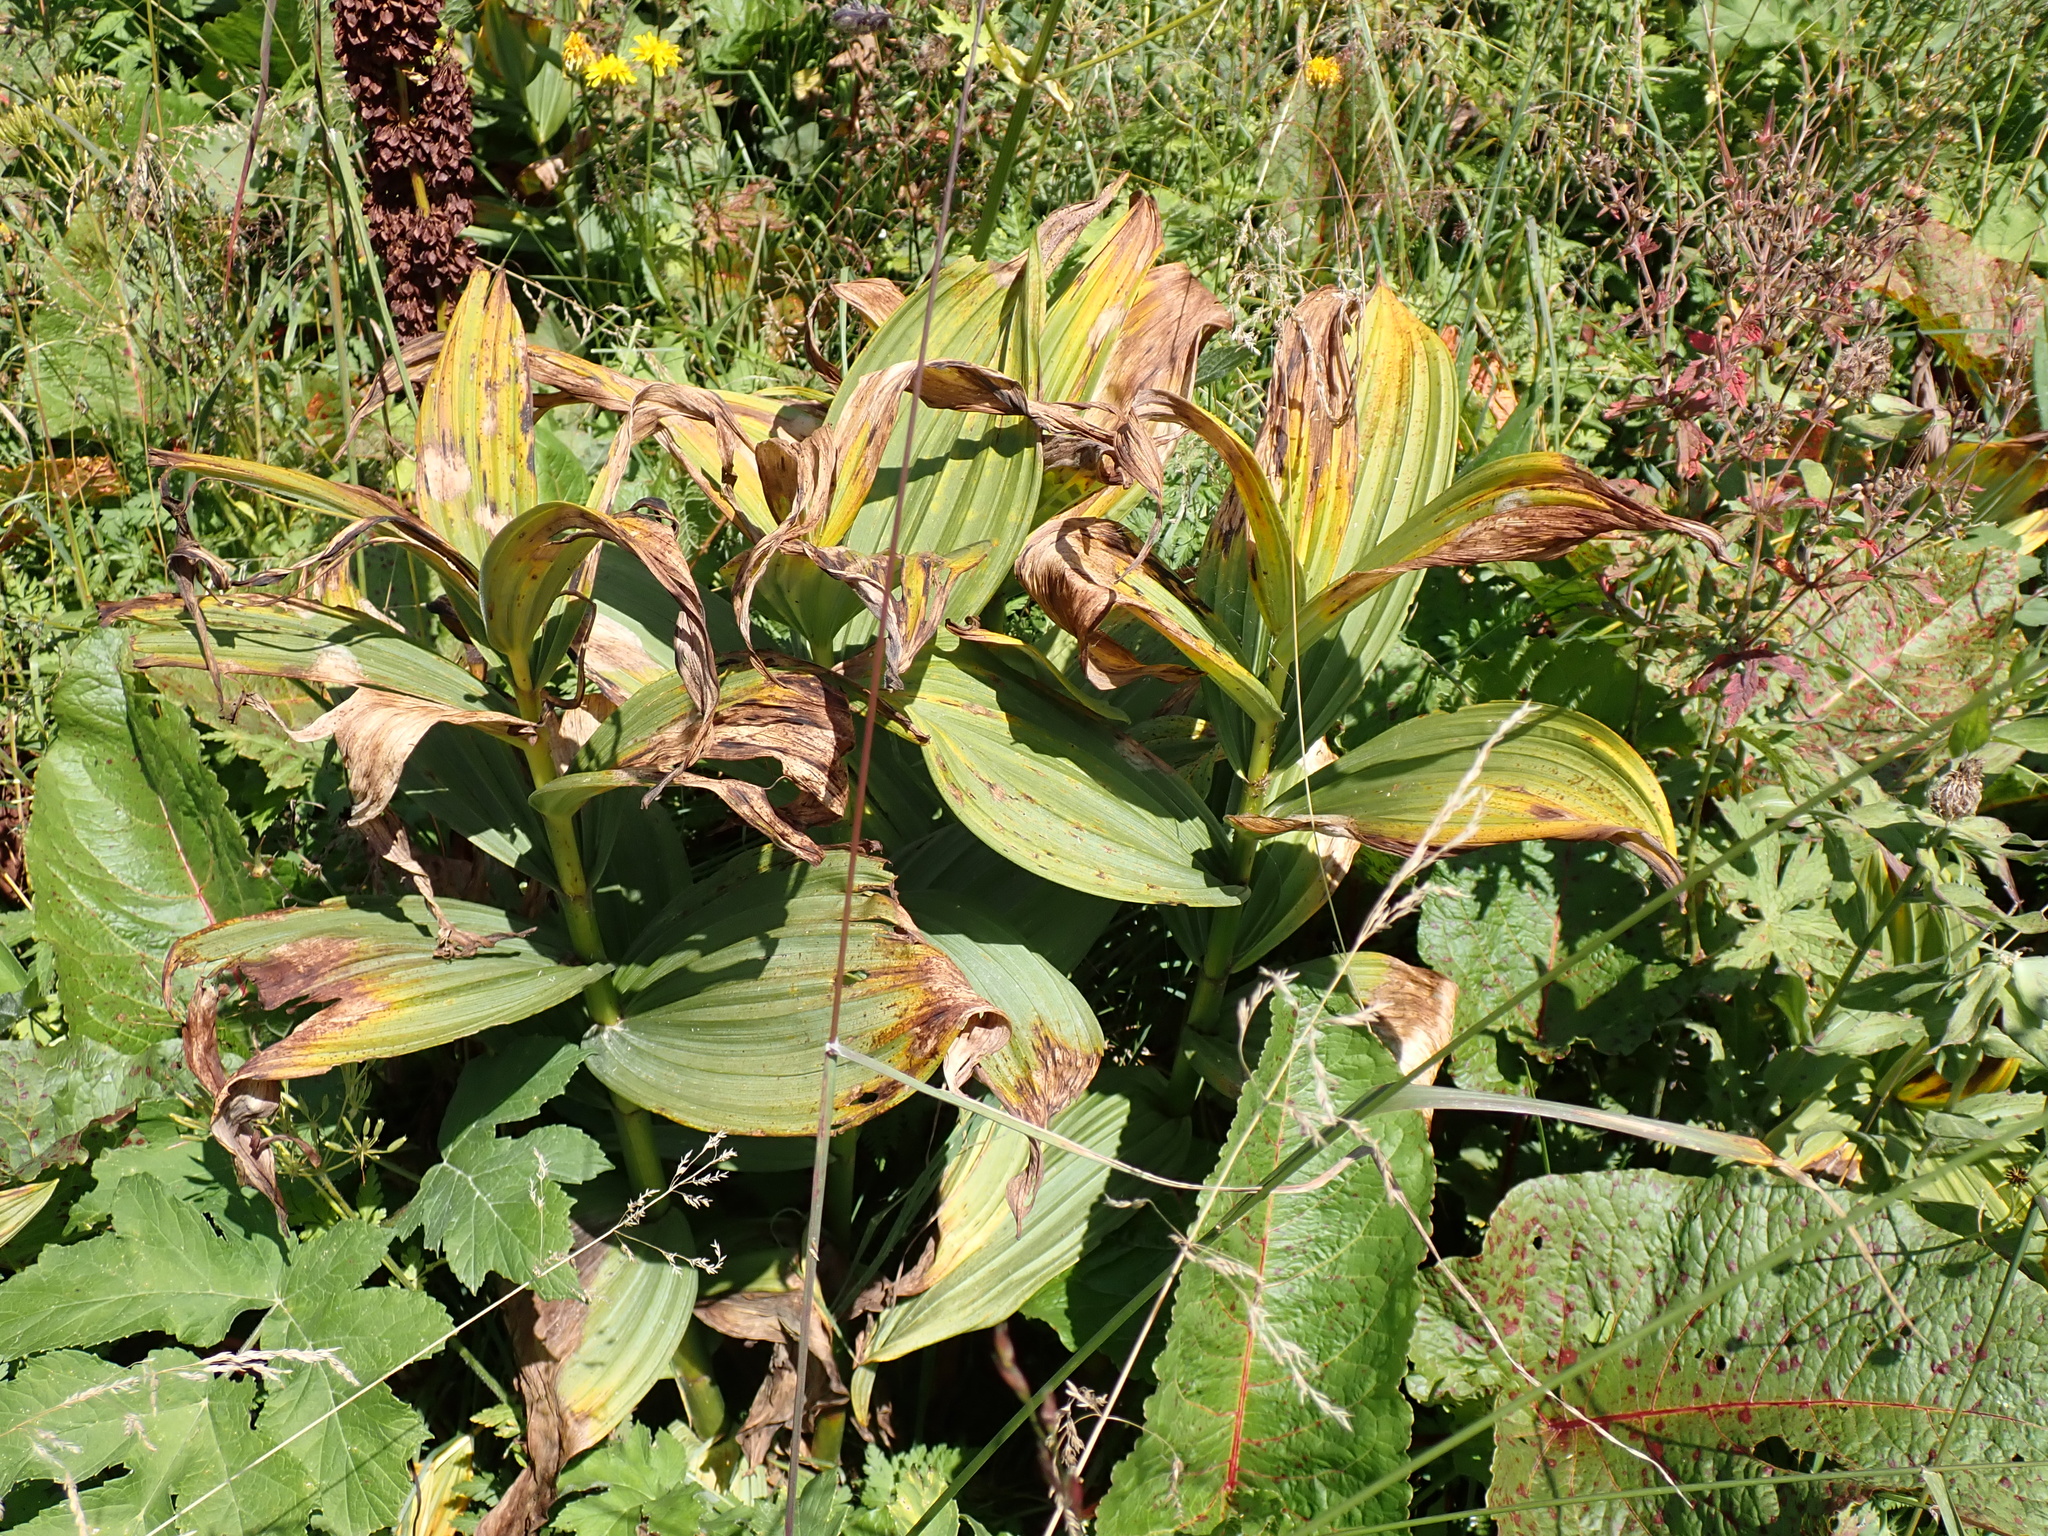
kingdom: Plantae
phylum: Tracheophyta
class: Liliopsida
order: Liliales
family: Melanthiaceae
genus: Veratrum
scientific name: Veratrum album
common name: White veratrum
